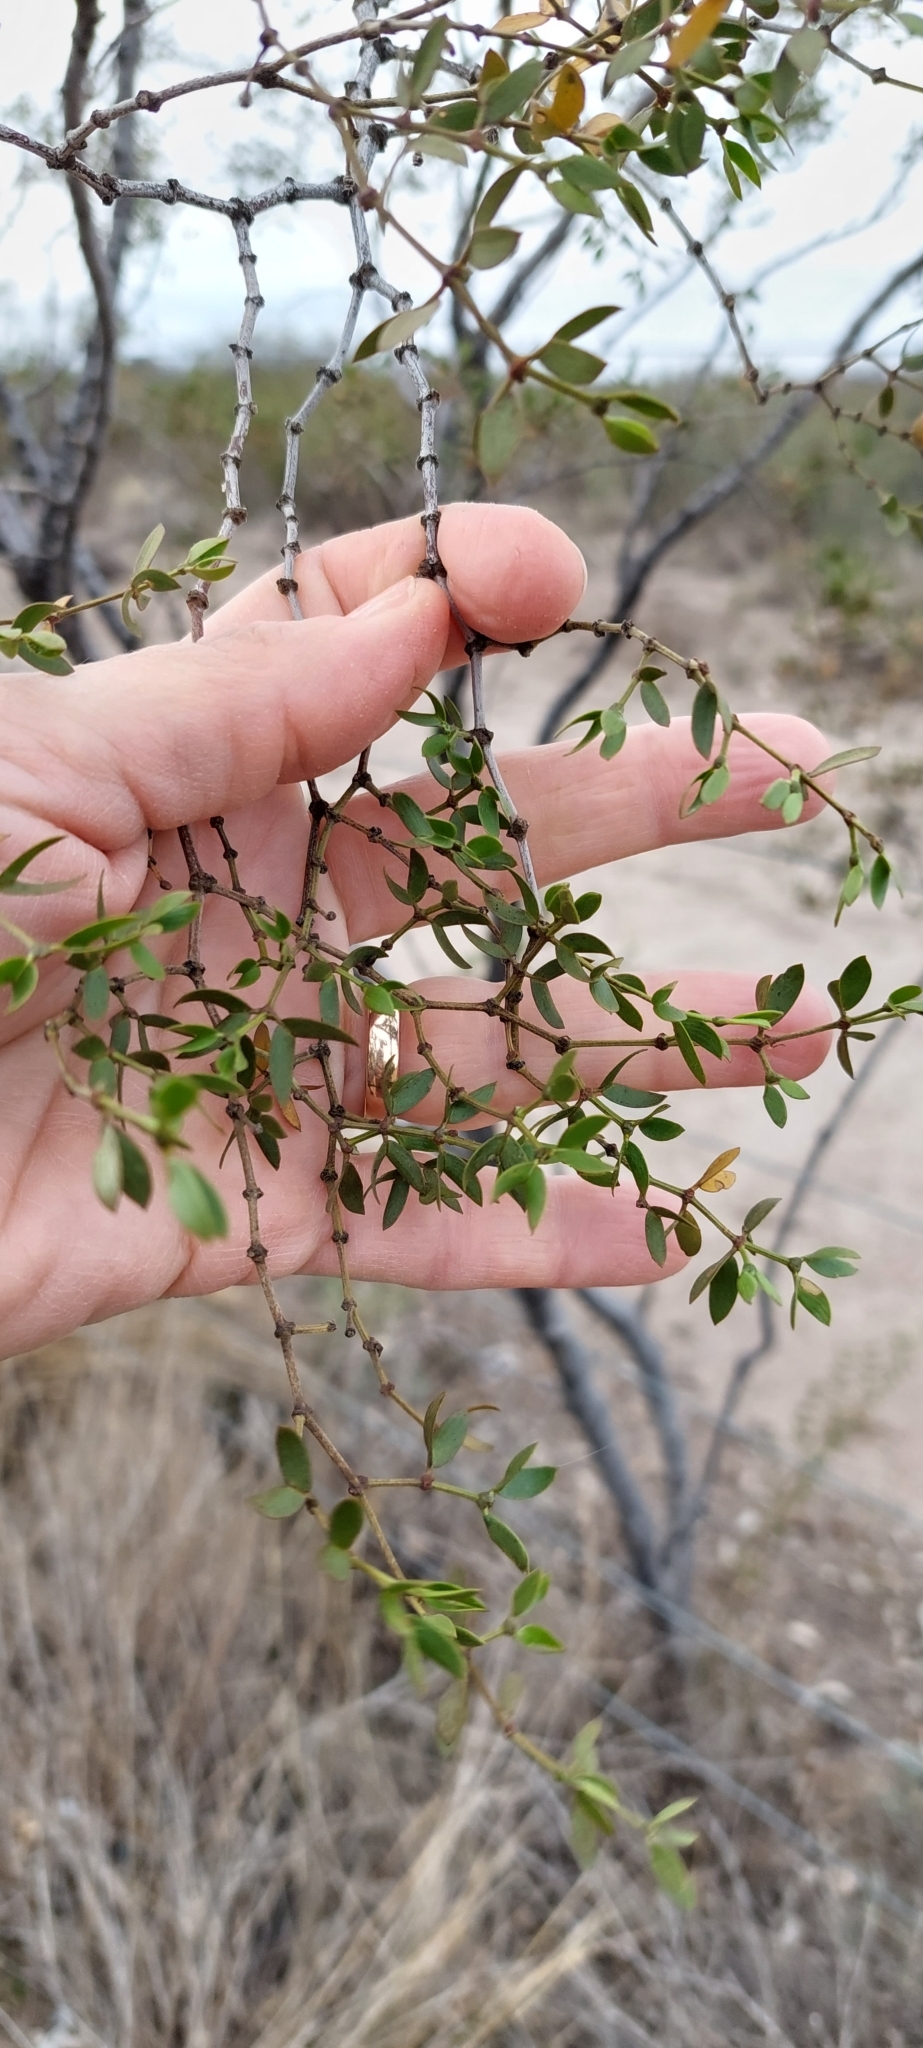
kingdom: Plantae
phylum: Tracheophyta
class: Magnoliopsida
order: Zygophyllales
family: Zygophyllaceae
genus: Larrea
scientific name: Larrea divaricata
